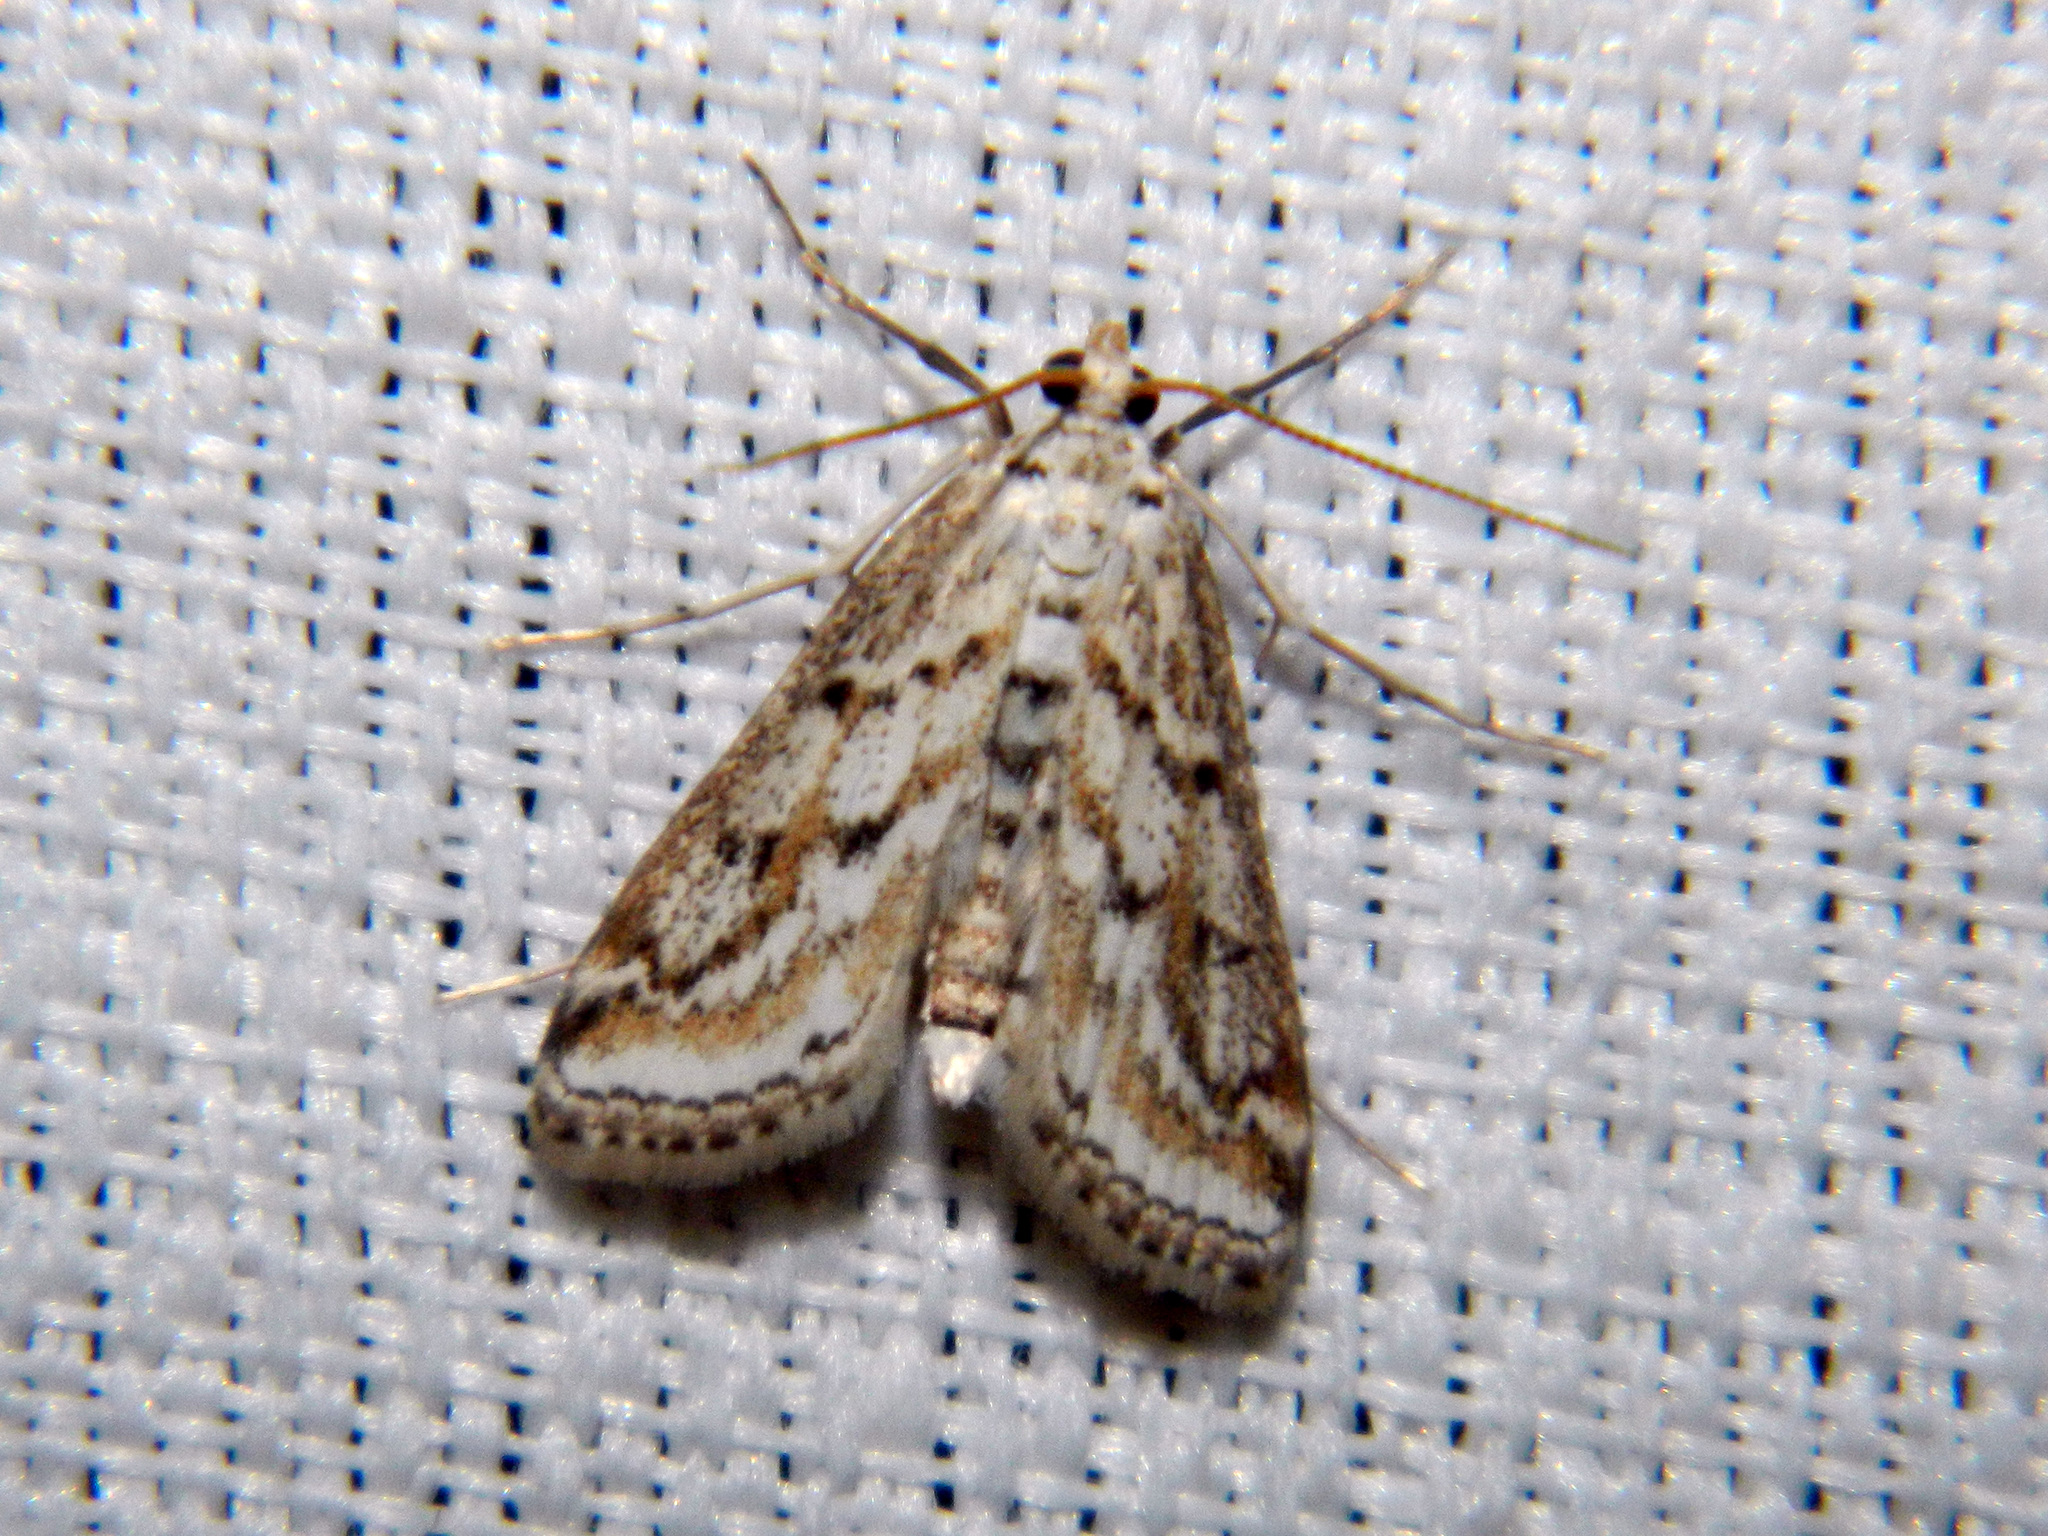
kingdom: Animalia
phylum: Arthropoda
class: Insecta
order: Lepidoptera
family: Crambidae
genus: Parapoynx
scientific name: Parapoynx allionealis
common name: Bladderwort casemaker
